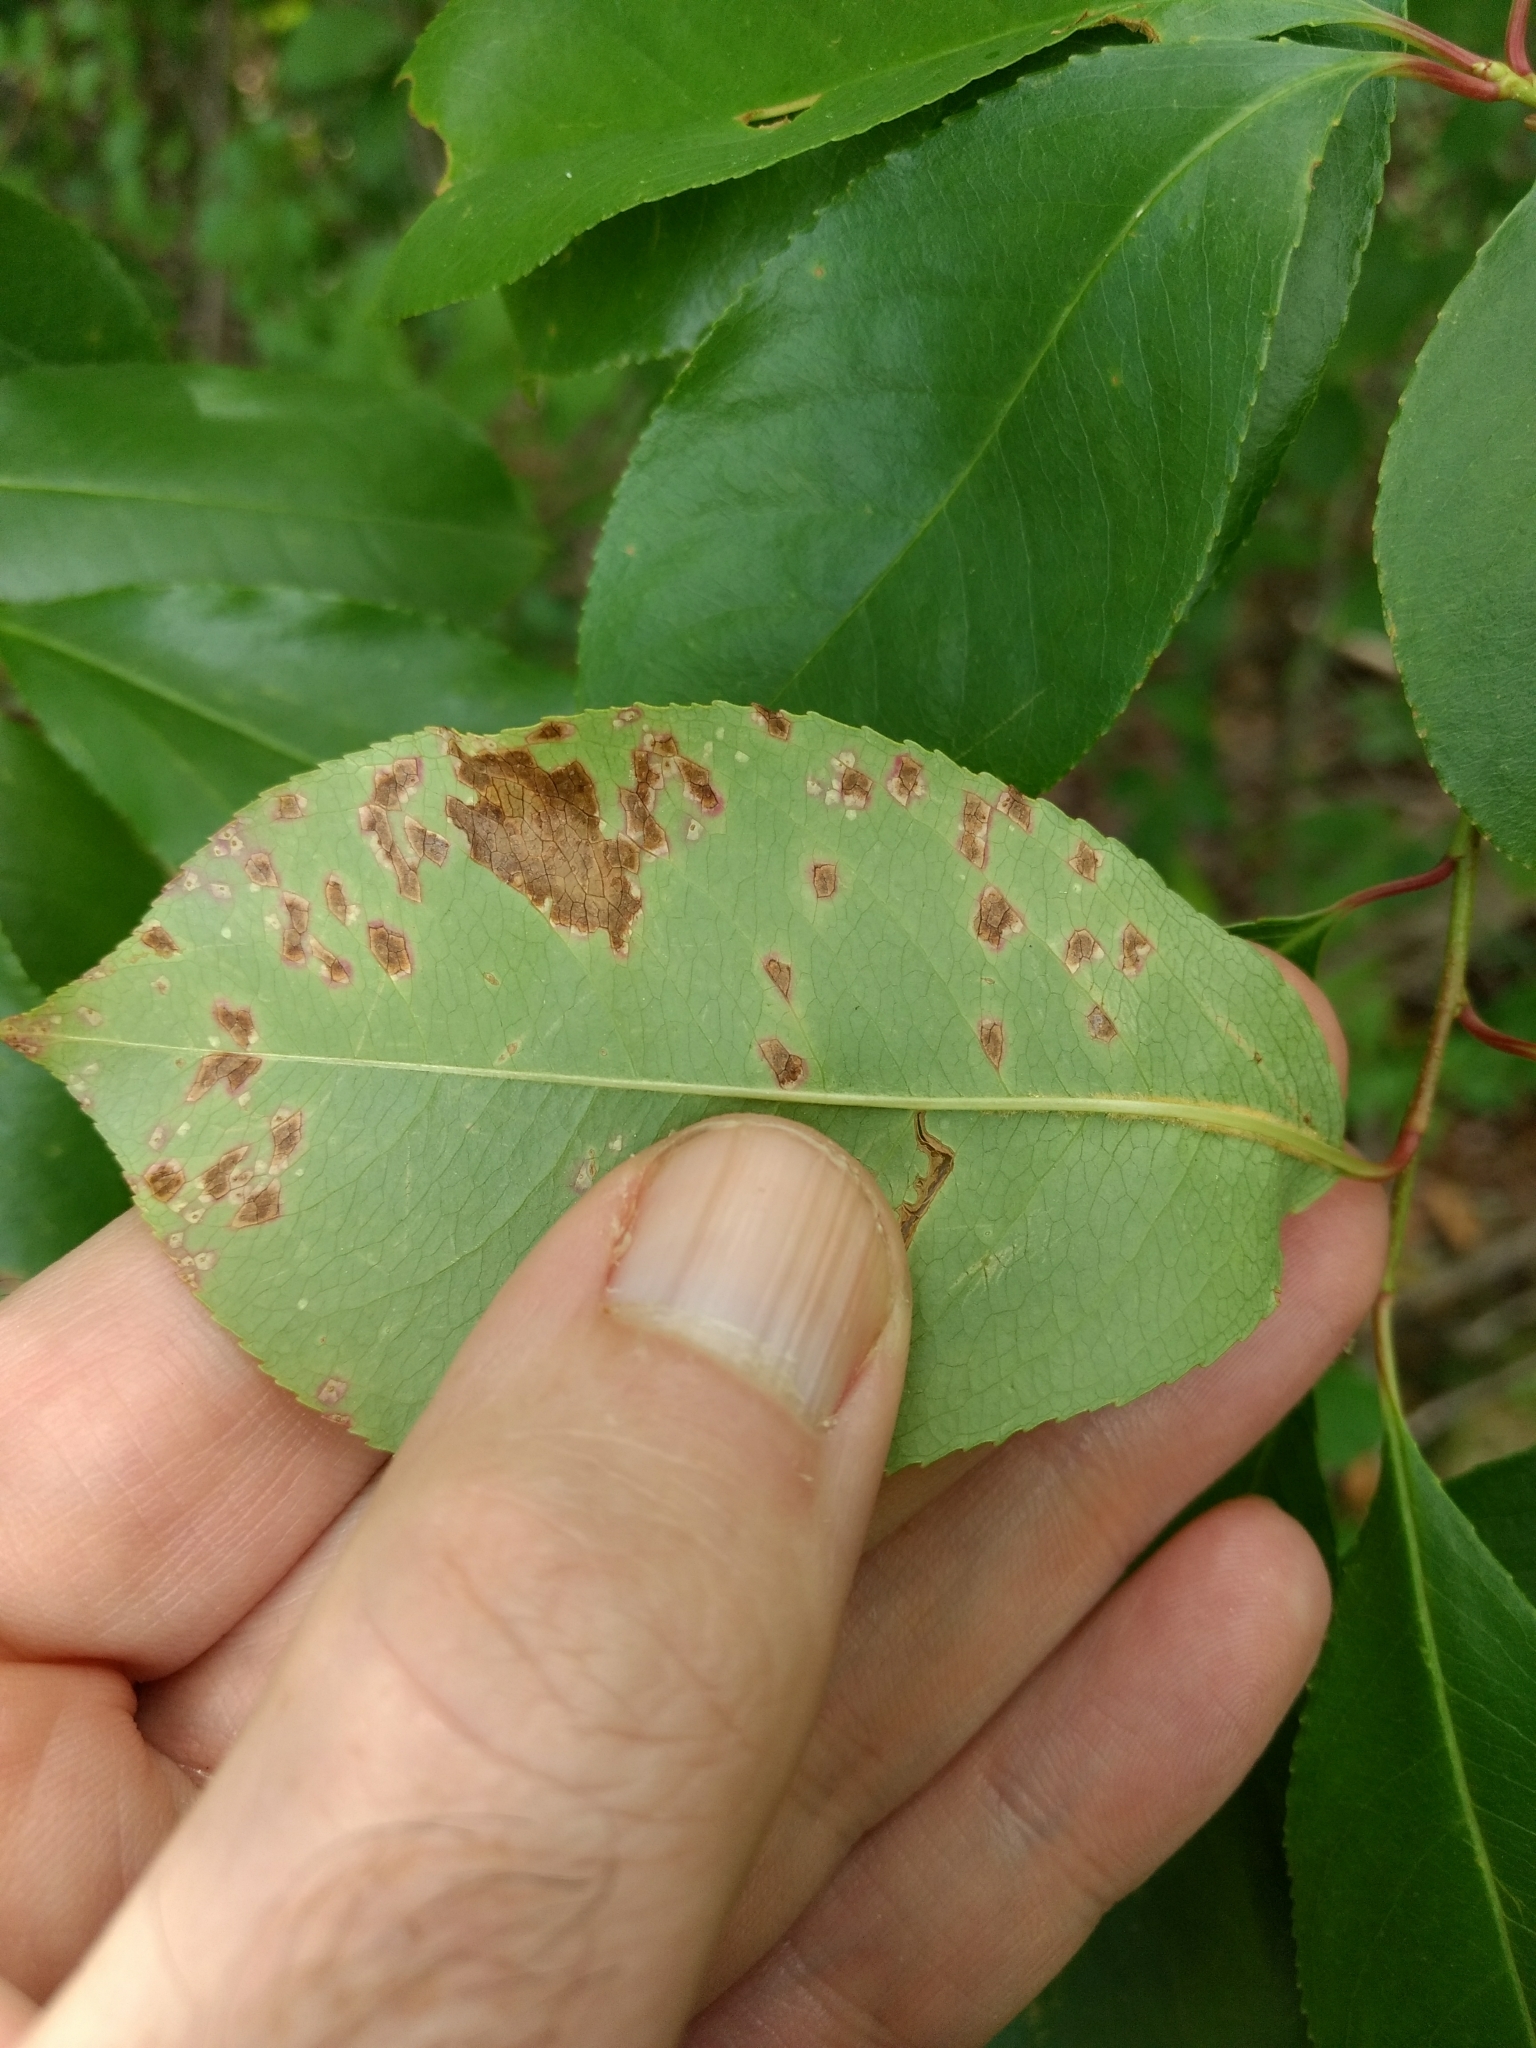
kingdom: Plantae
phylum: Tracheophyta
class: Magnoliopsida
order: Rosales
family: Rosaceae
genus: Prunus
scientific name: Prunus serotina
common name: Black cherry
